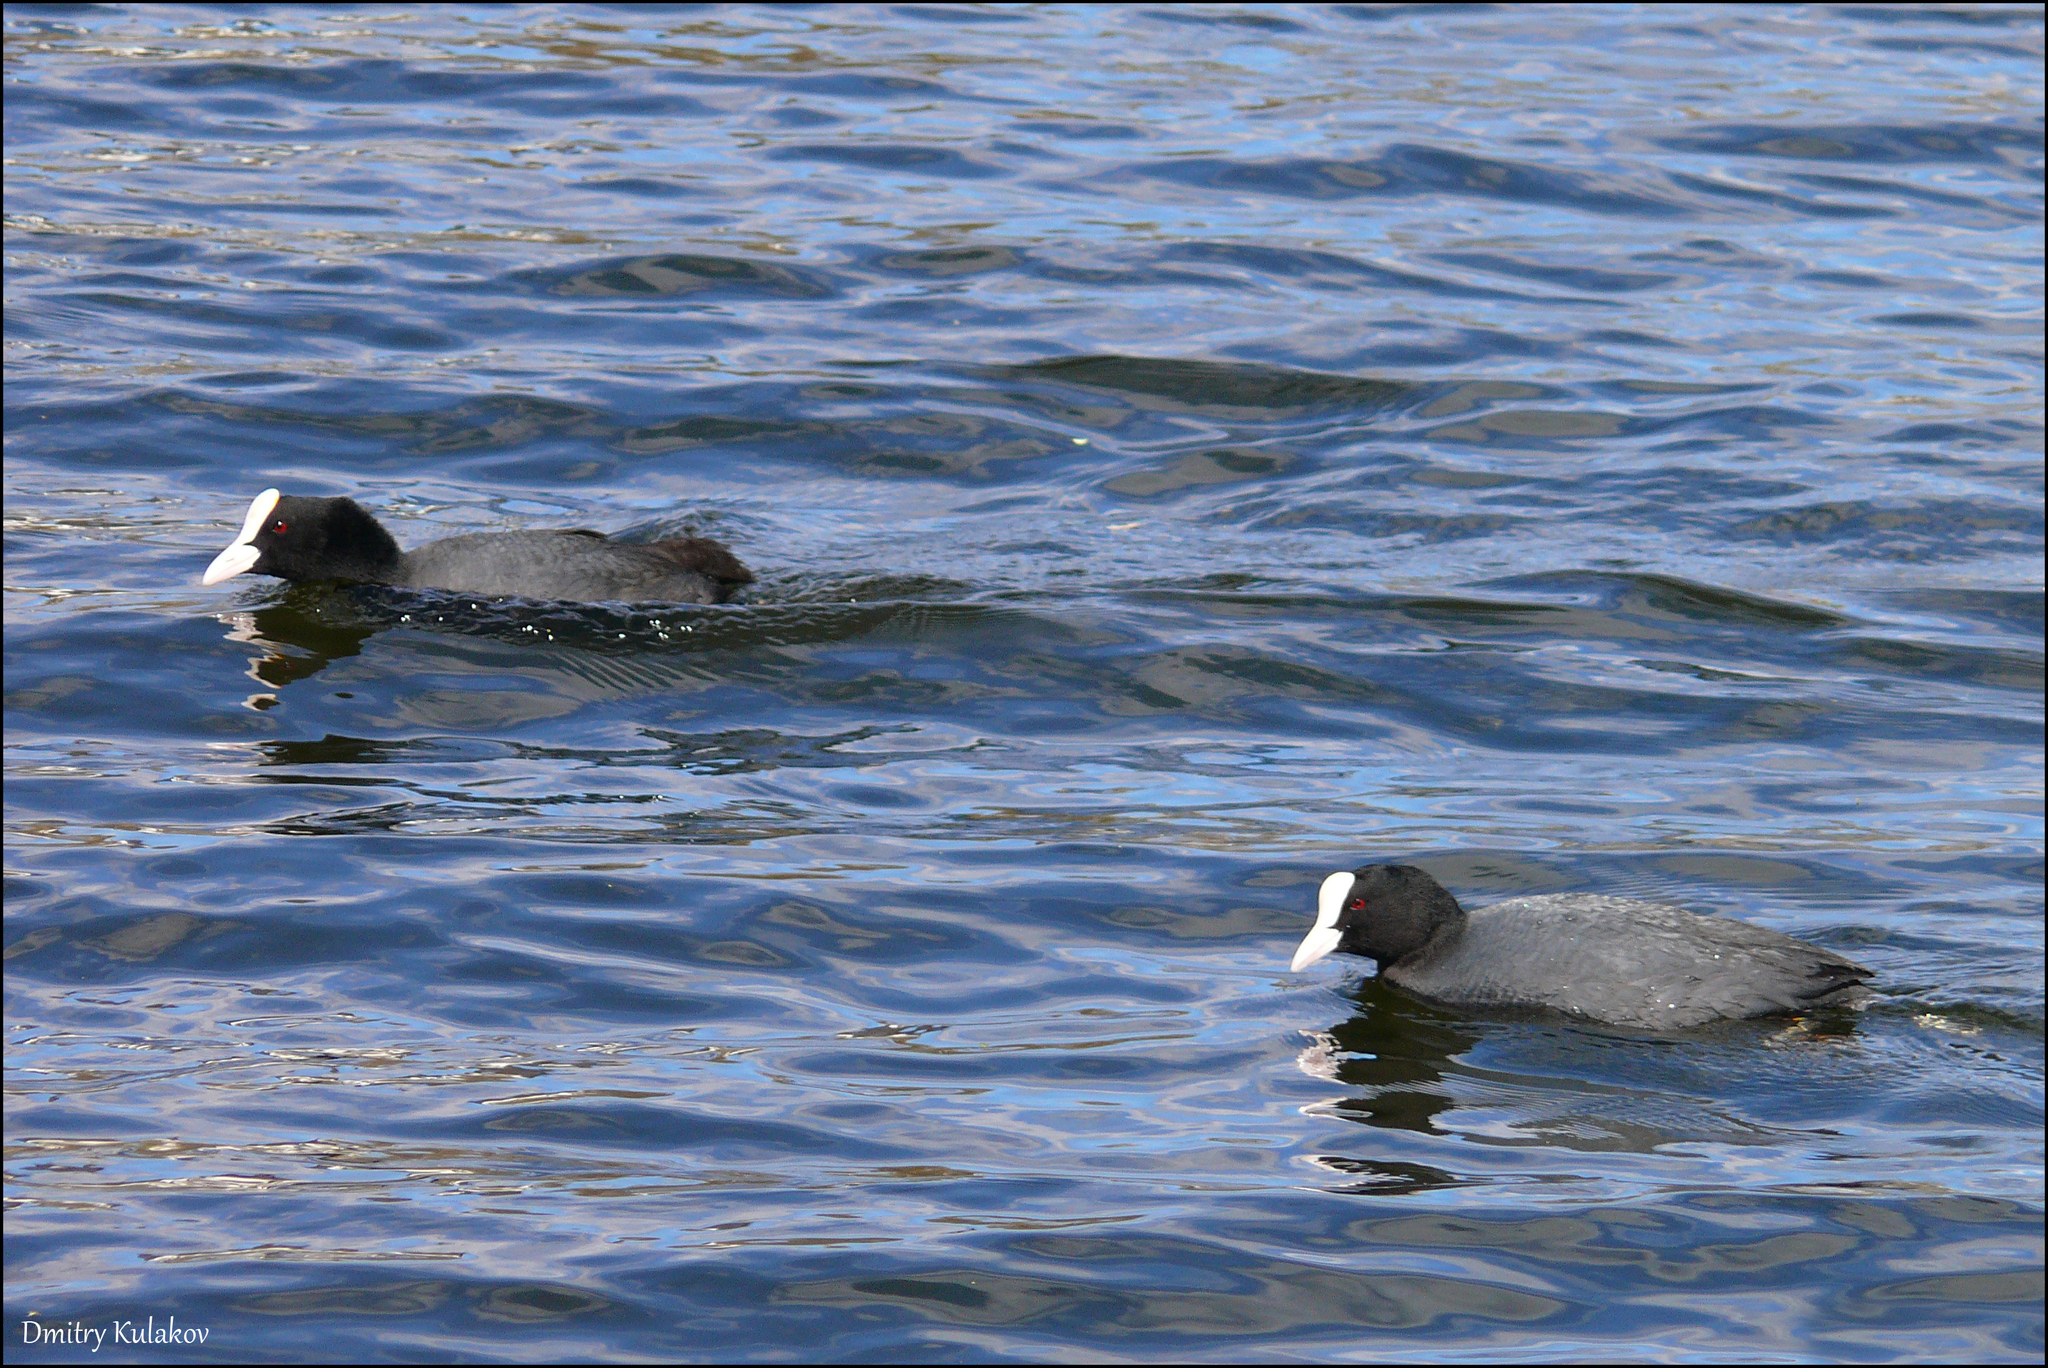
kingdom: Animalia
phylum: Chordata
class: Aves
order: Gruiformes
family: Rallidae
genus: Fulica
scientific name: Fulica atra
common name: Eurasian coot
